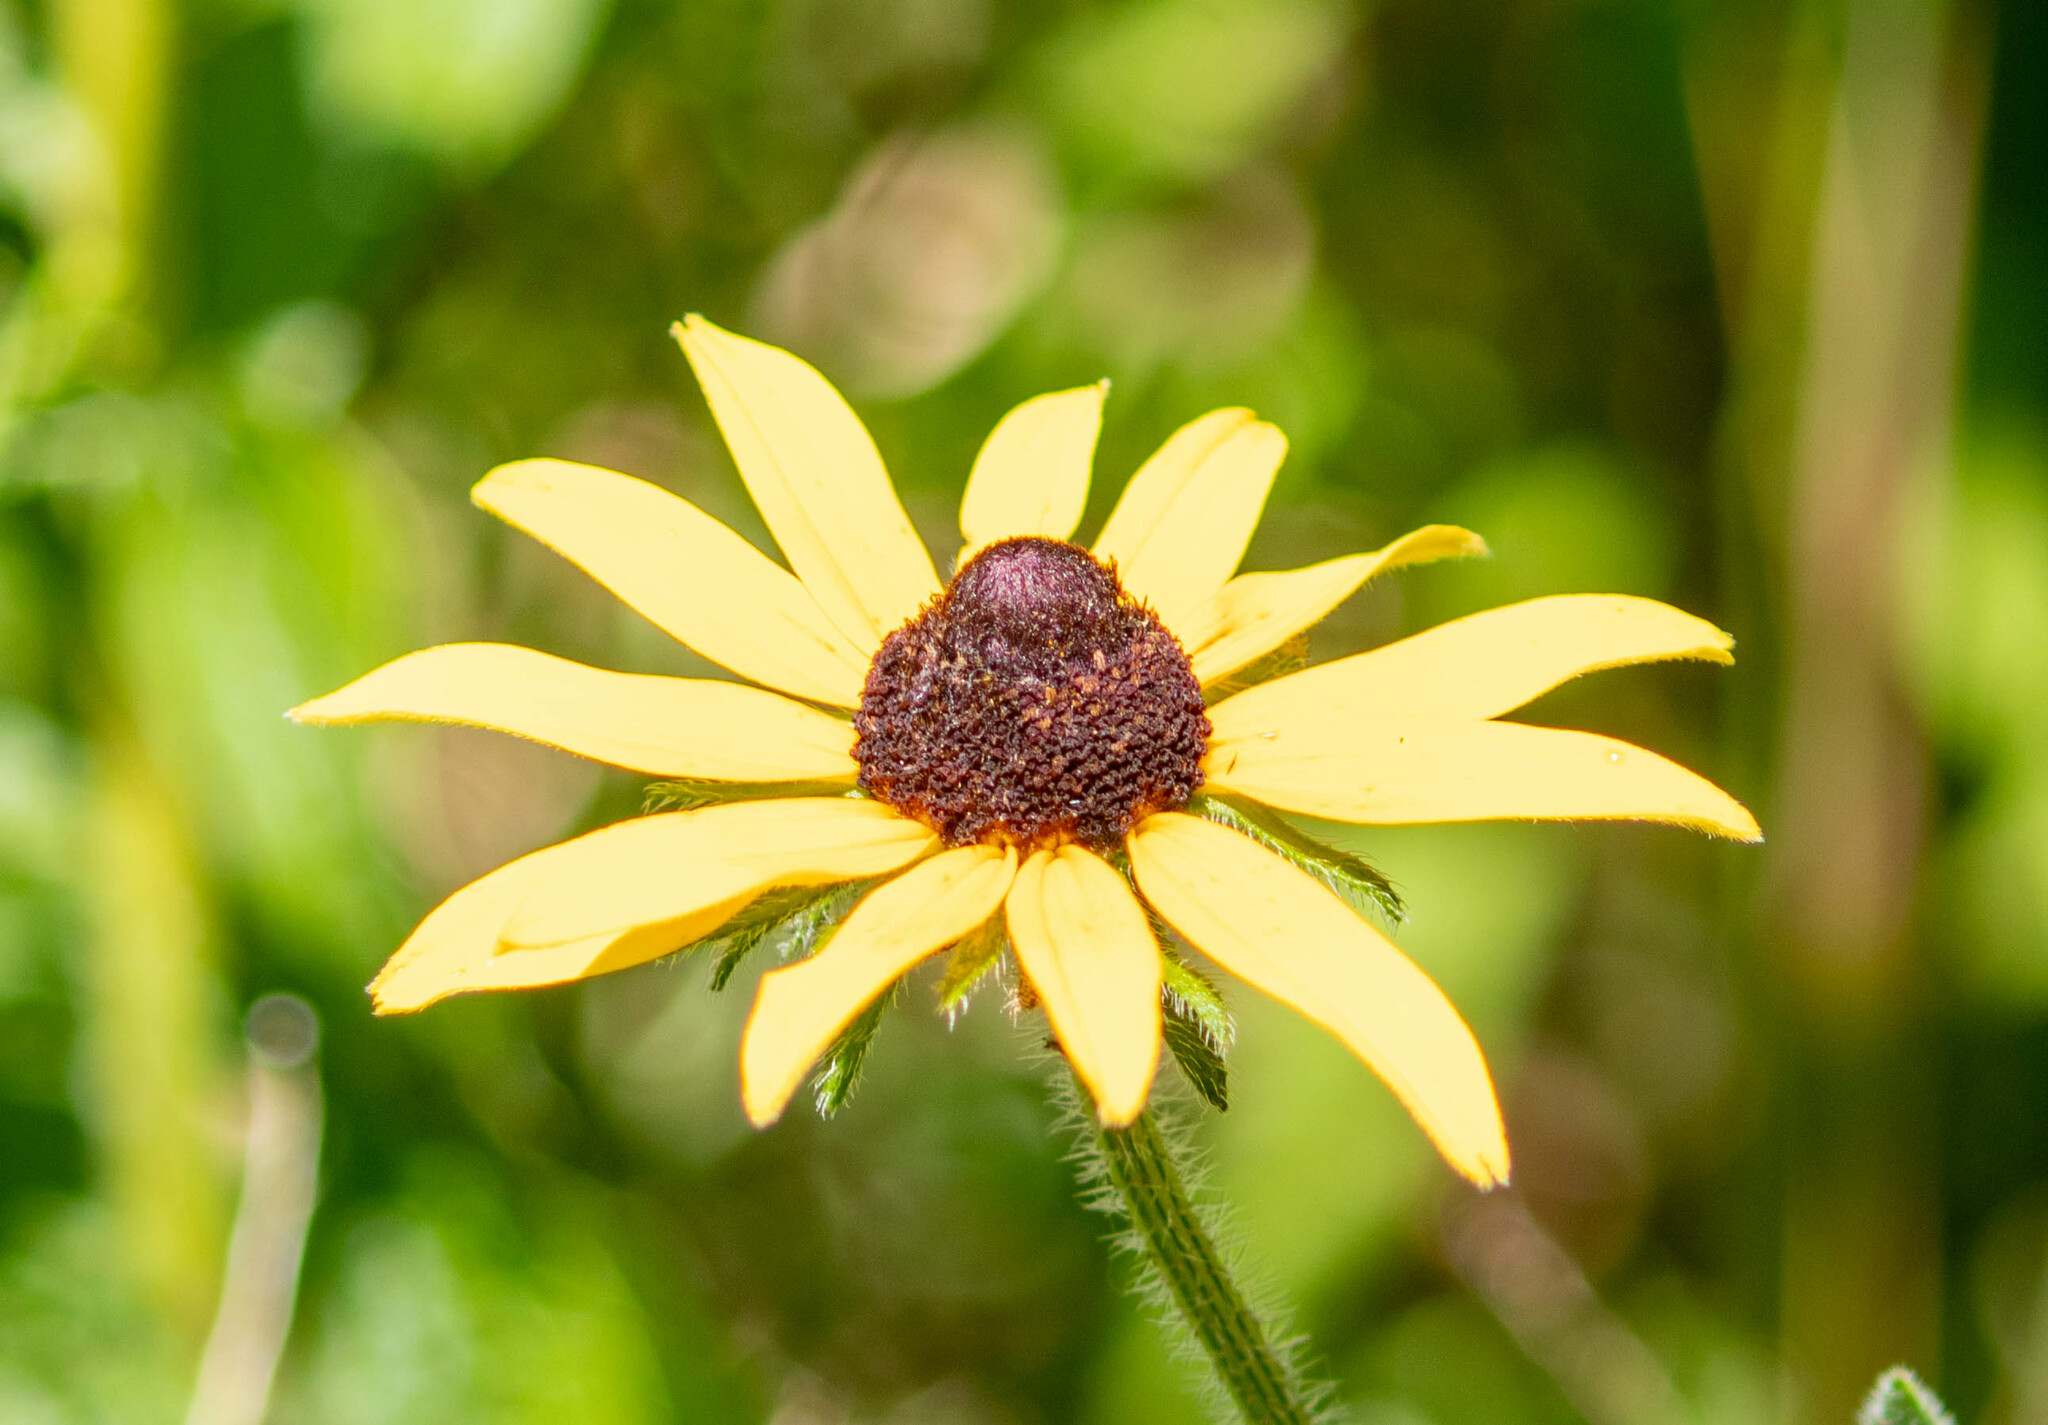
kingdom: Plantae
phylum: Tracheophyta
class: Magnoliopsida
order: Asterales
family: Asteraceae
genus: Rudbeckia
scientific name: Rudbeckia hirta
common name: Black-eyed-susan
